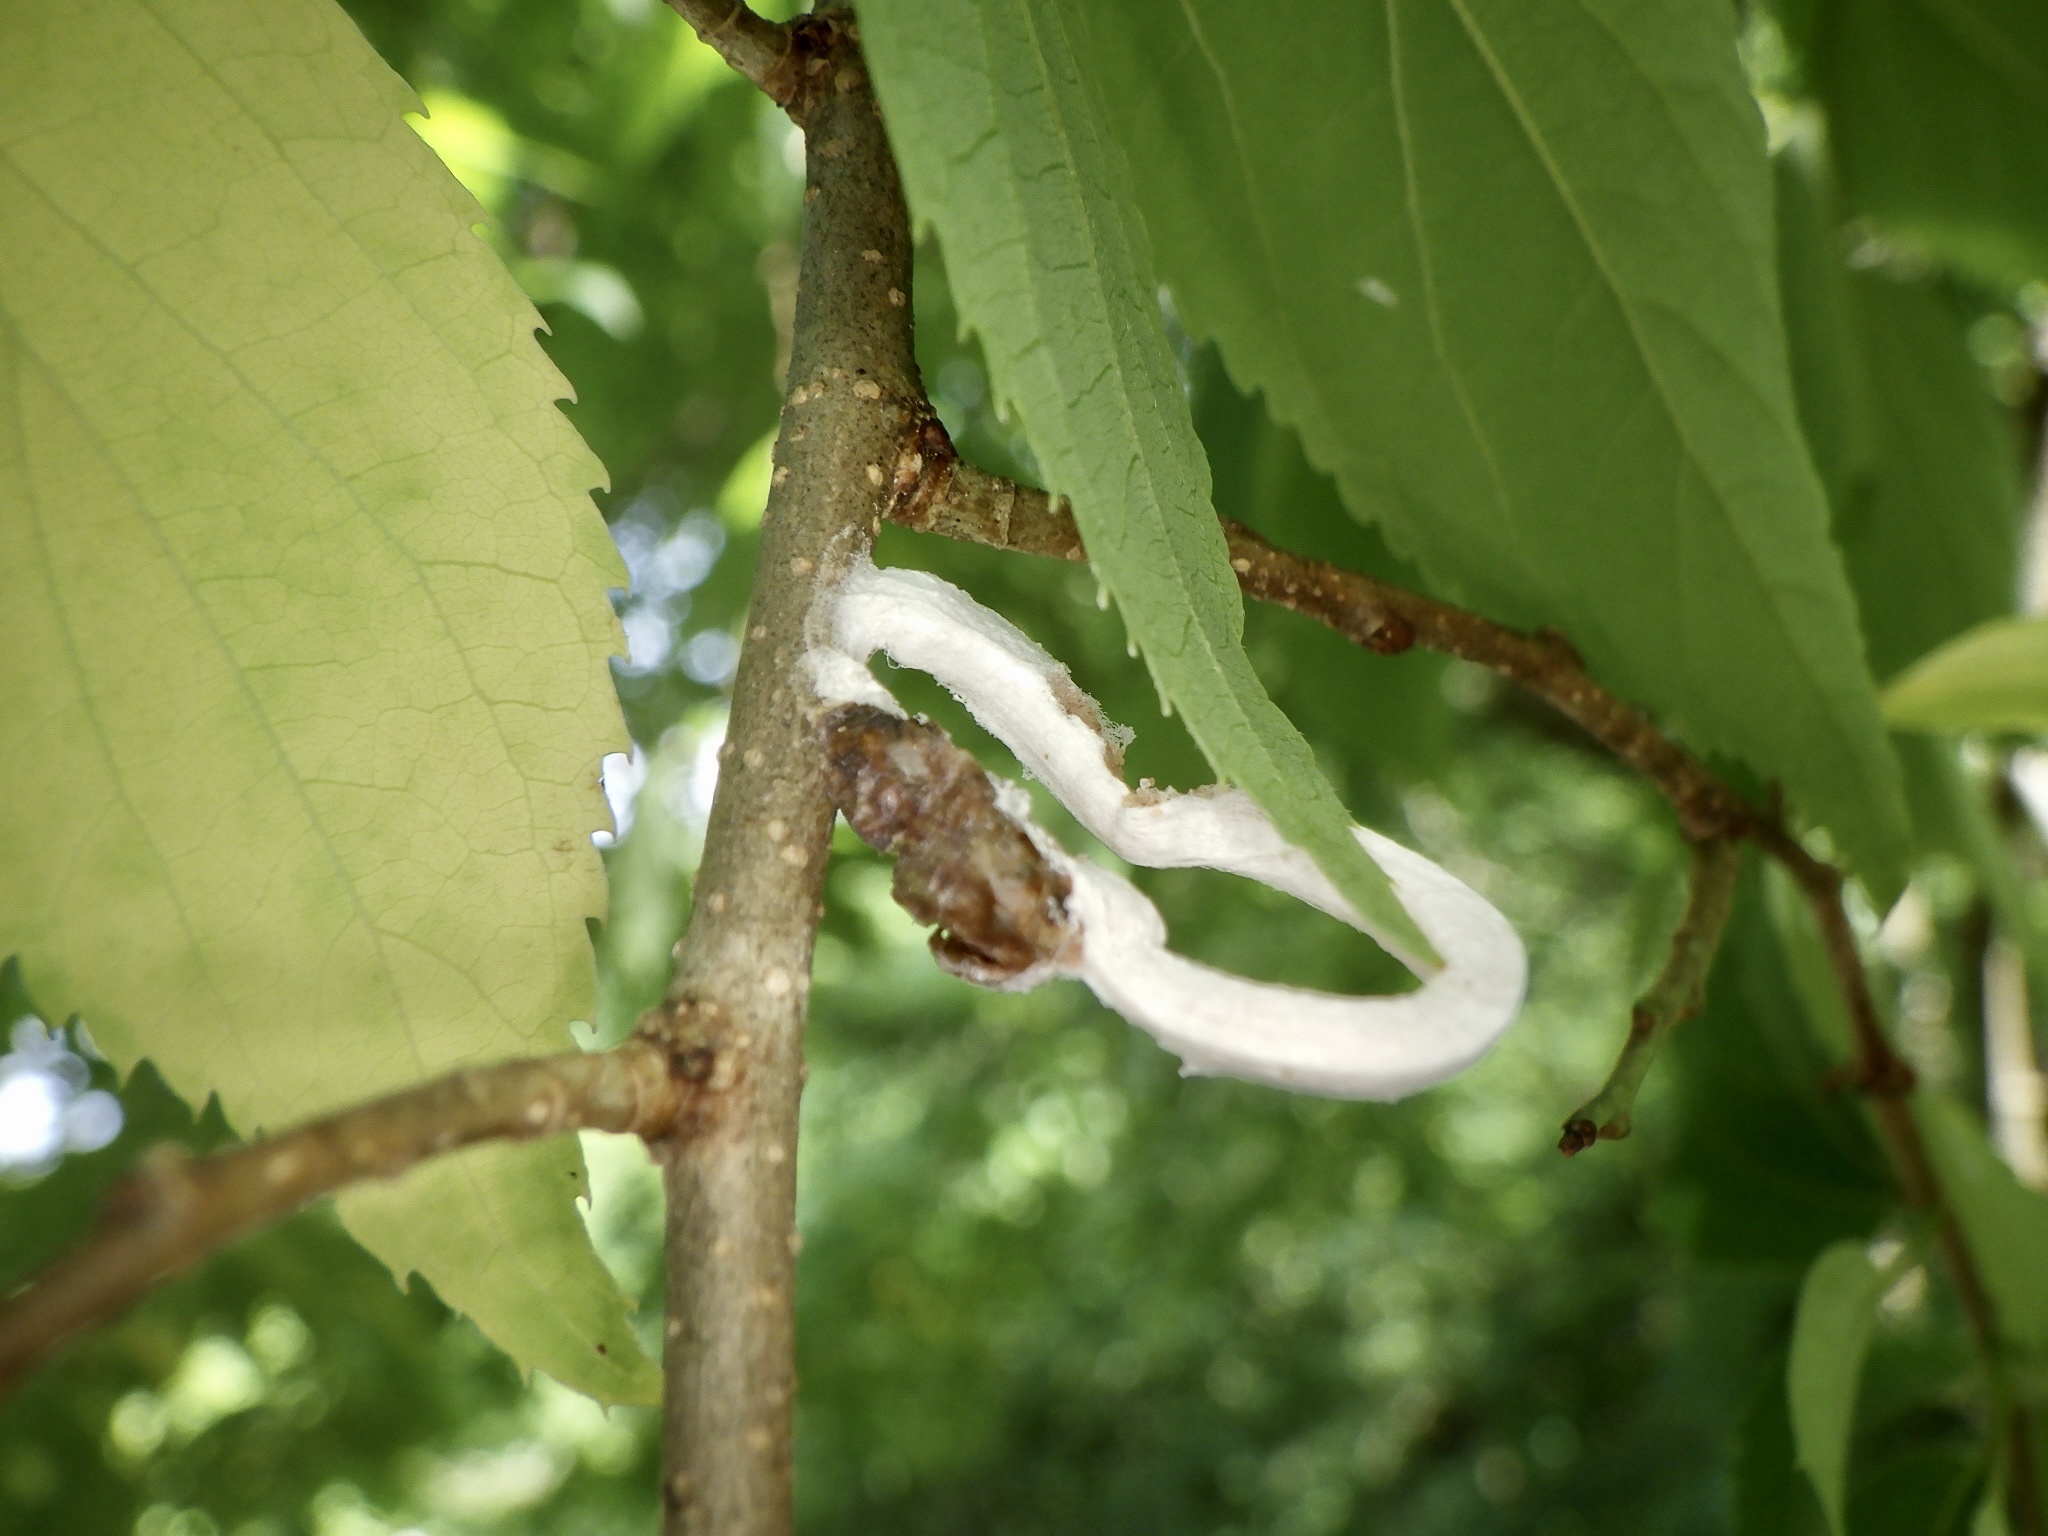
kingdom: Animalia
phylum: Arthropoda
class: Insecta
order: Hemiptera
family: Coccidae
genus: Takahashia
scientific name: Takahashia japonica
